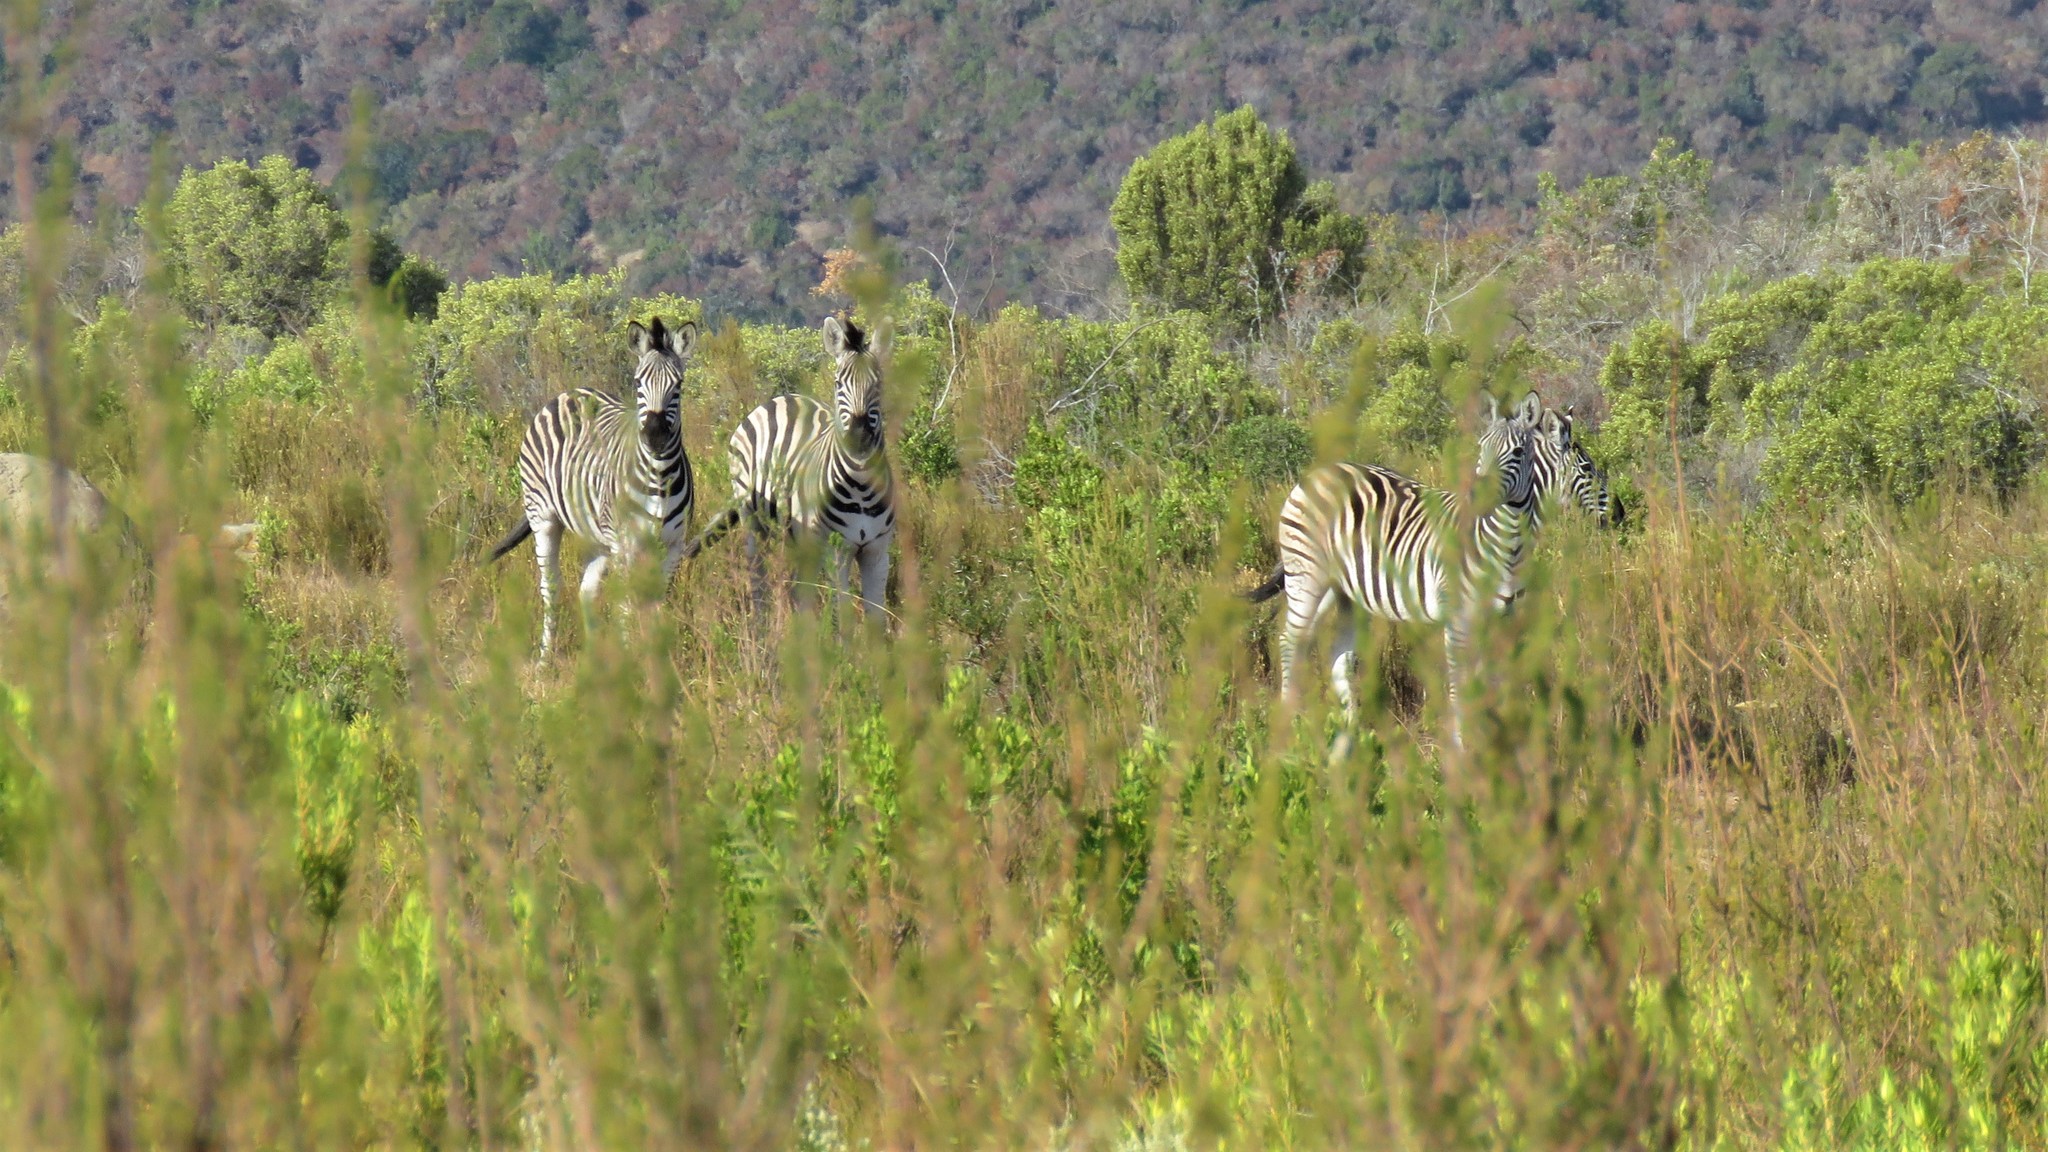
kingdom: Animalia
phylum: Chordata
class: Mammalia
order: Perissodactyla
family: Equidae
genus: Equus
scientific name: Equus quagga
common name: Plains zebra
